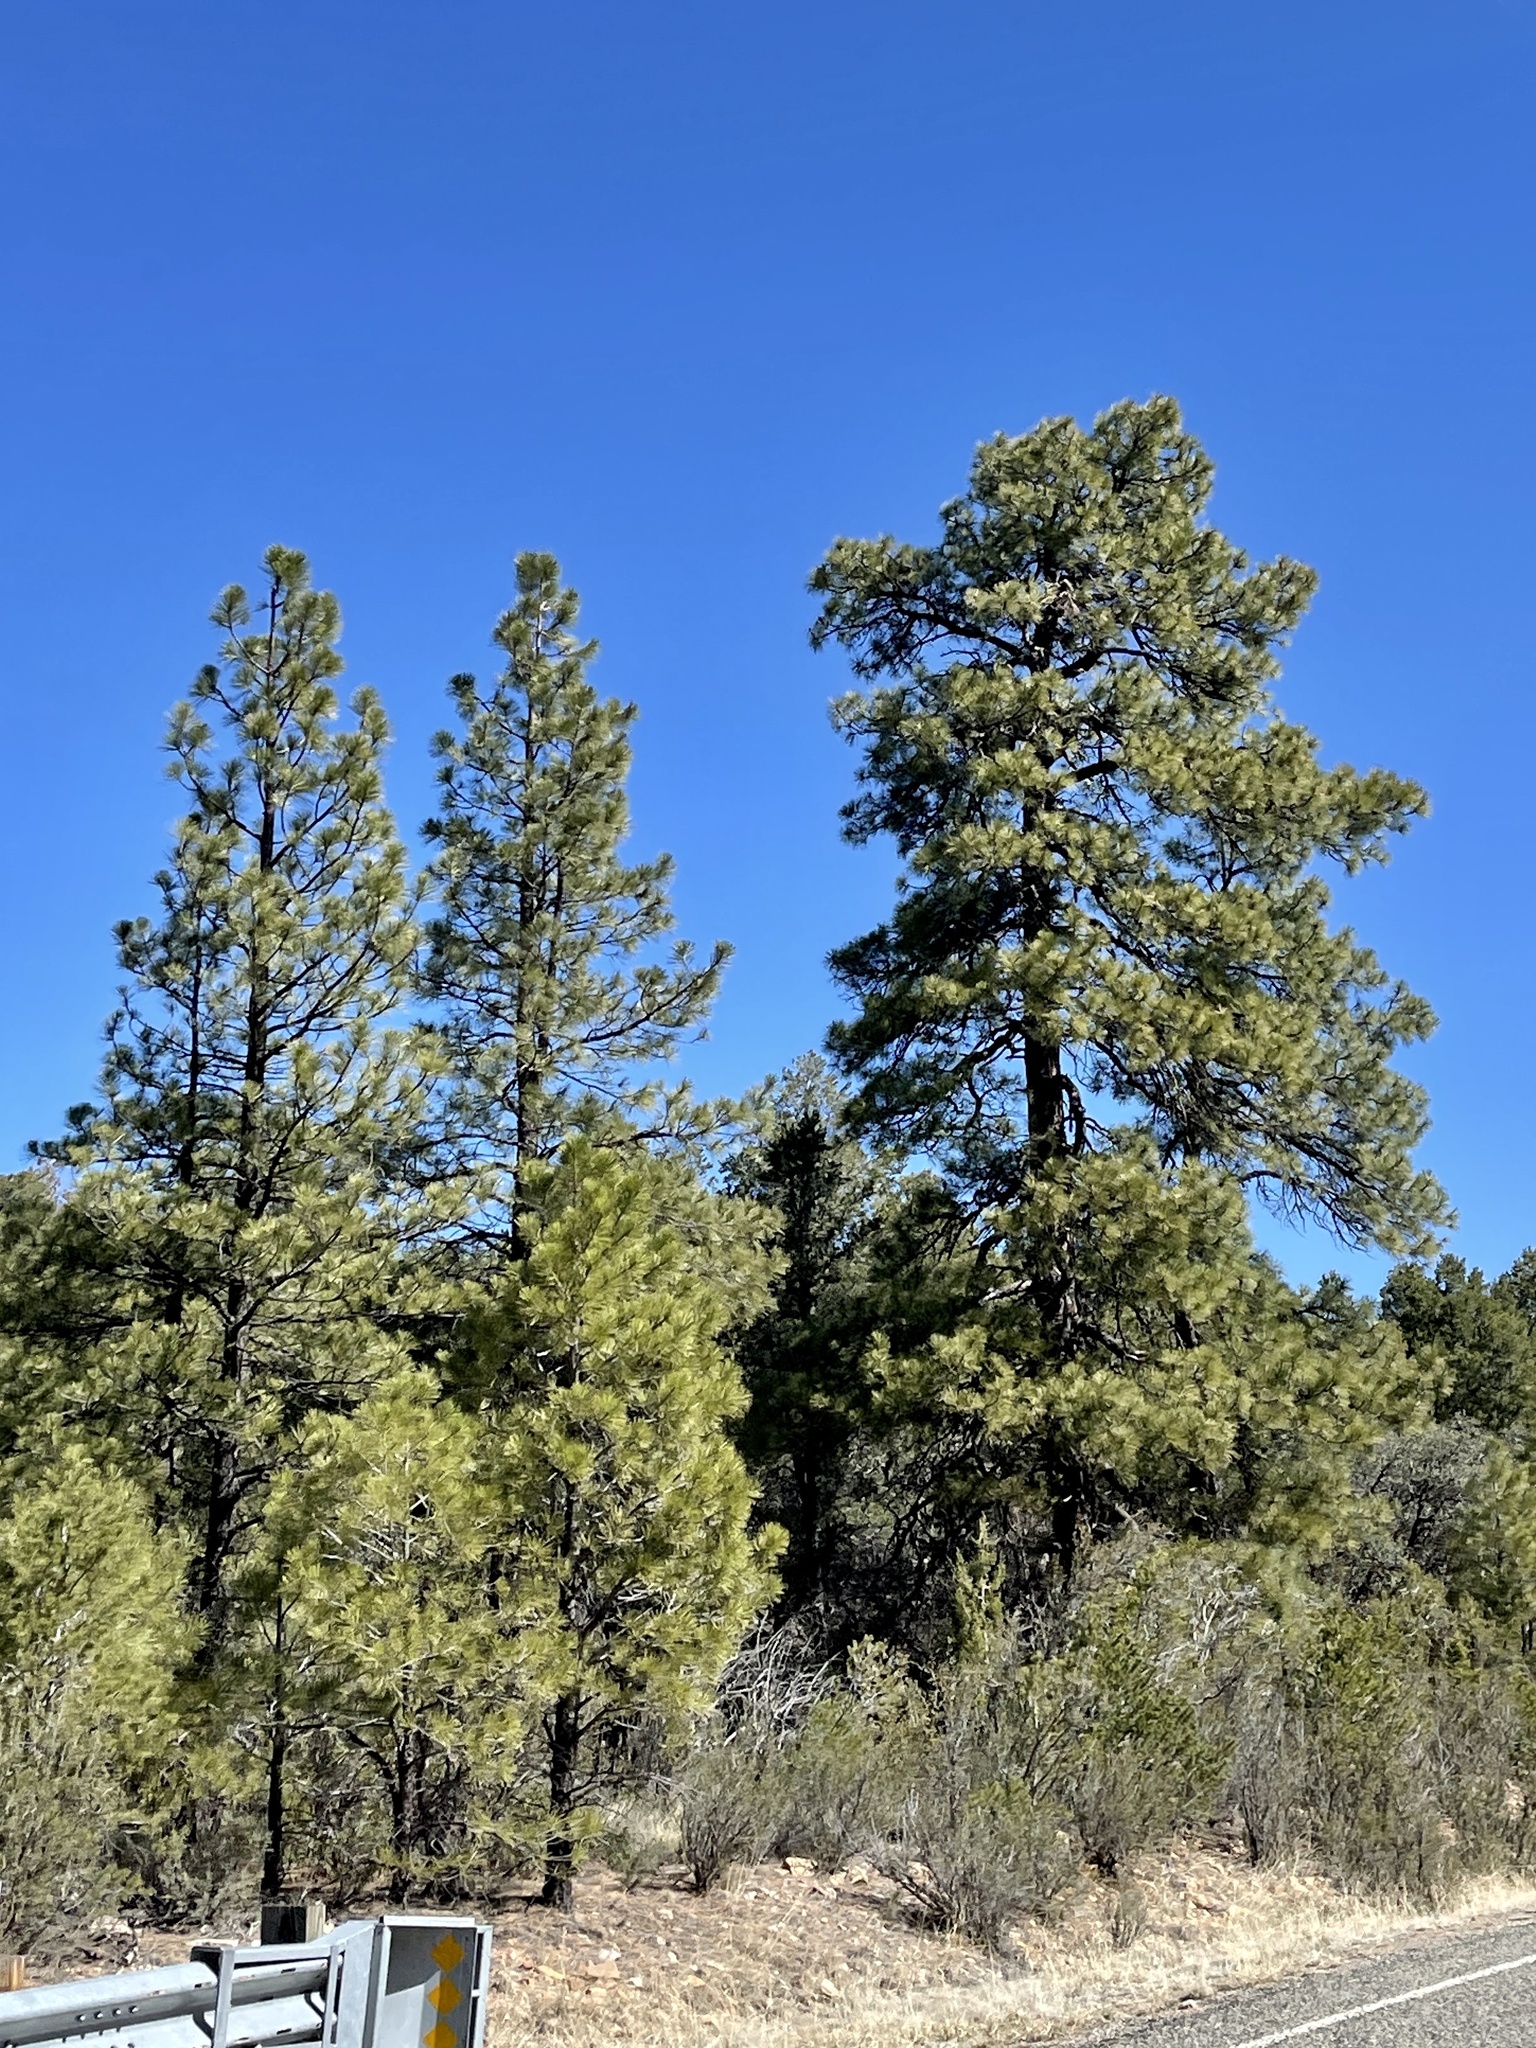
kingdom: Plantae
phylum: Tracheophyta
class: Pinopsida
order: Pinales
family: Pinaceae
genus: Pinus
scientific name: Pinus ponderosa
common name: Western yellow-pine
